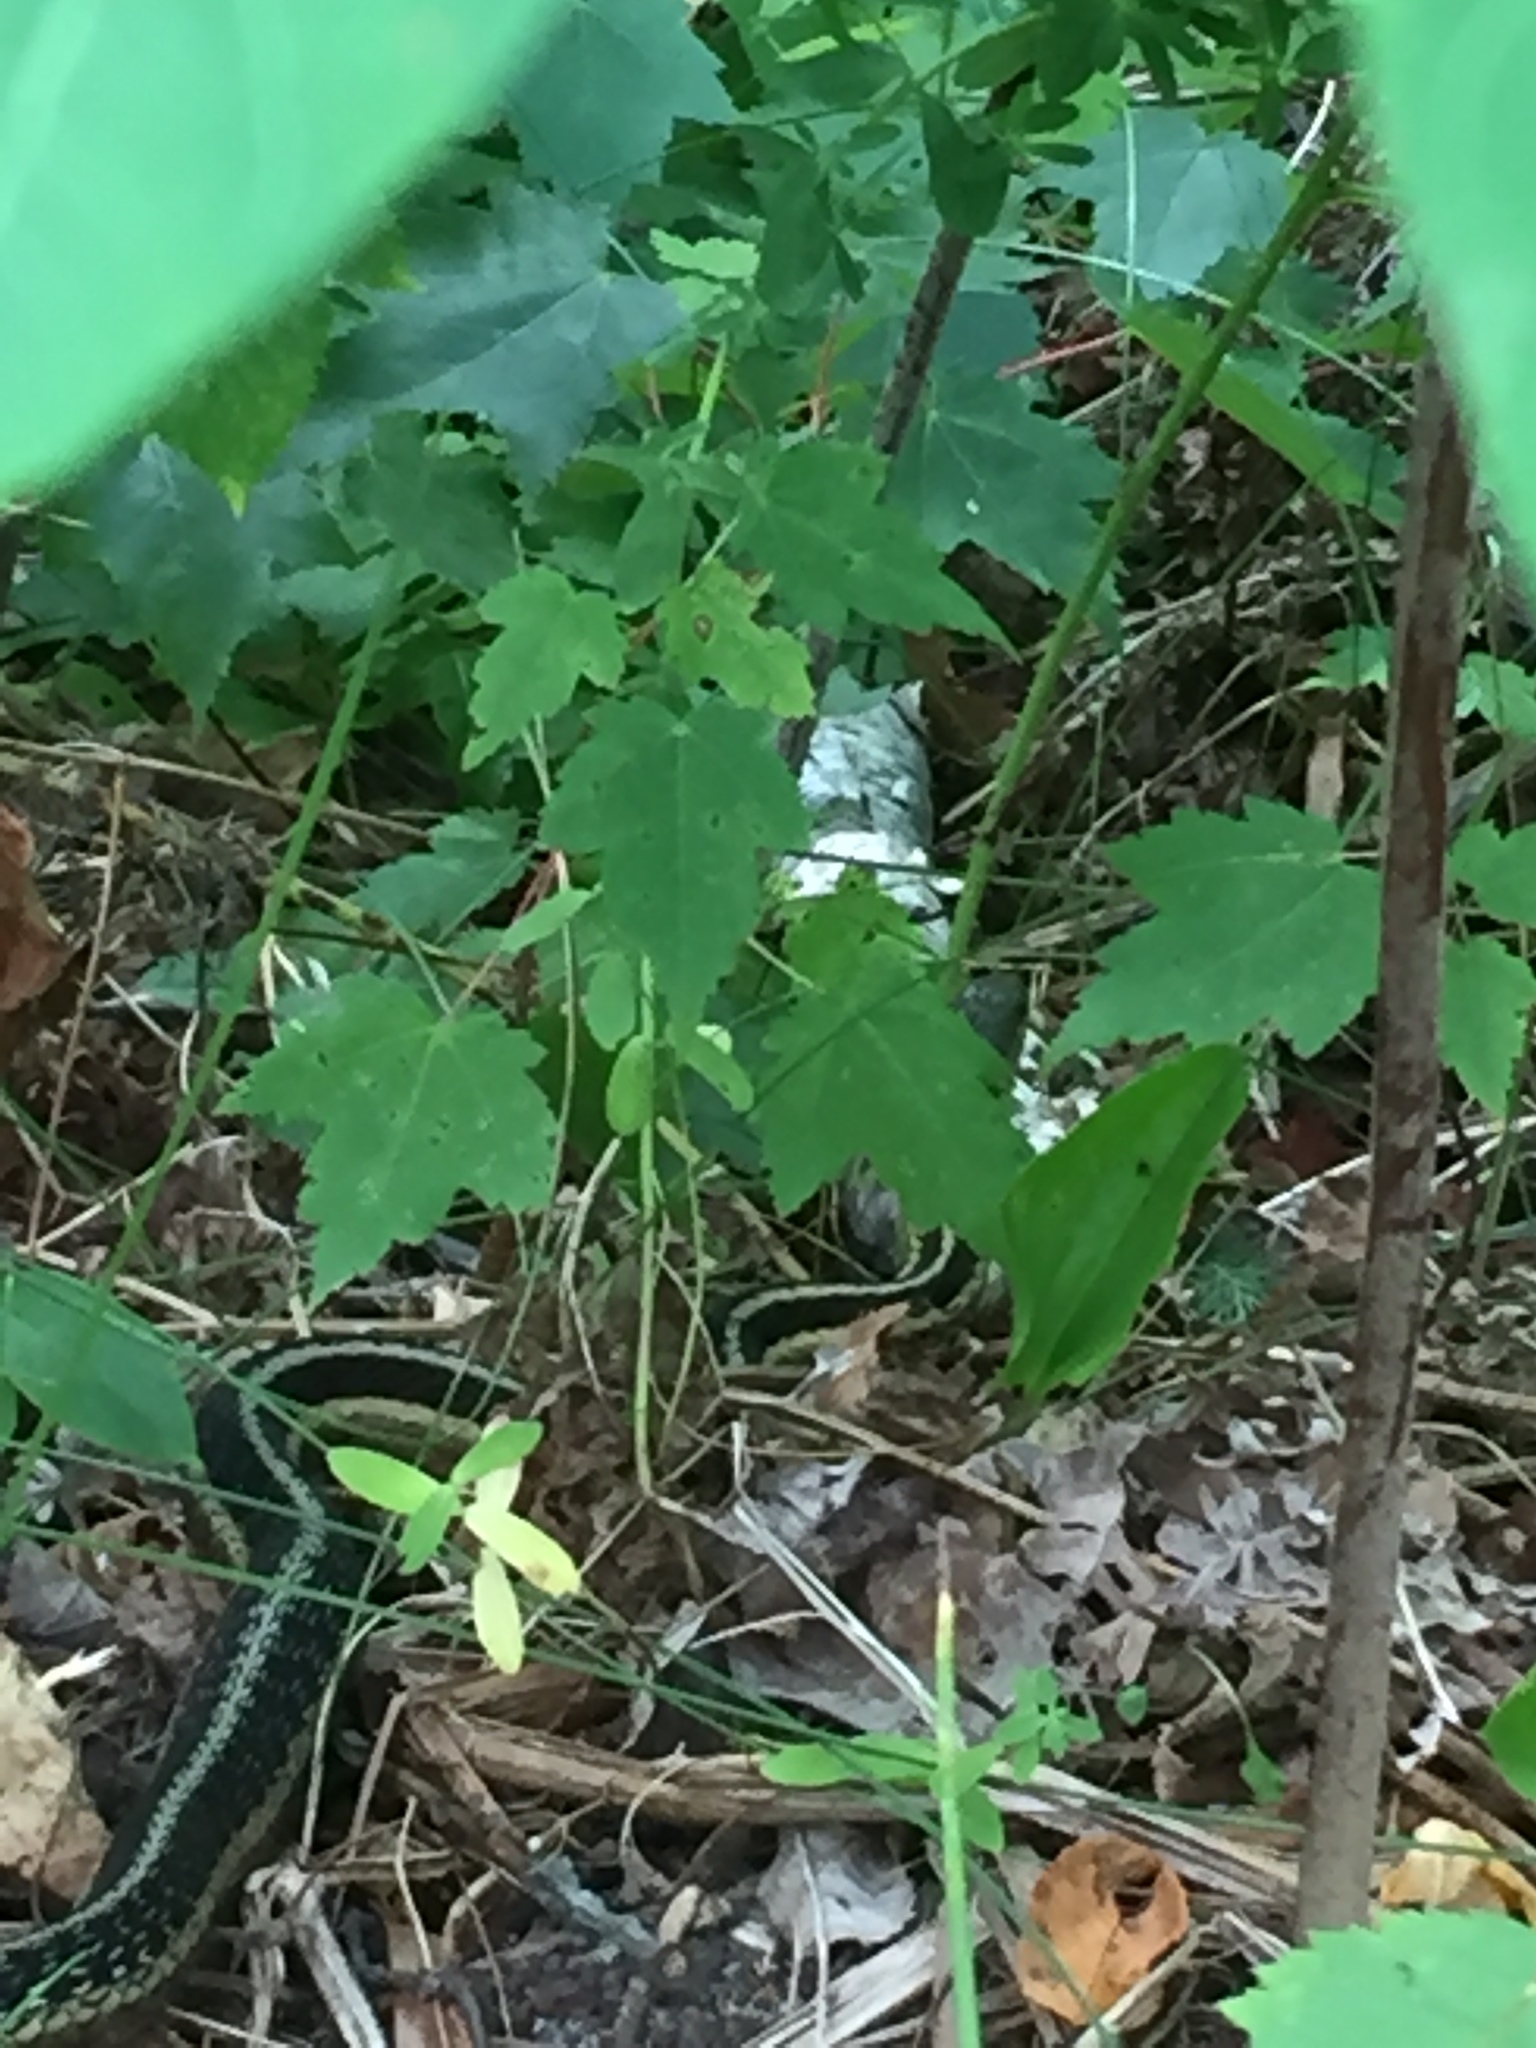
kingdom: Animalia
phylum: Chordata
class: Squamata
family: Colubridae
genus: Thamnophis
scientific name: Thamnophis sirtalis
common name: Common garter snake
